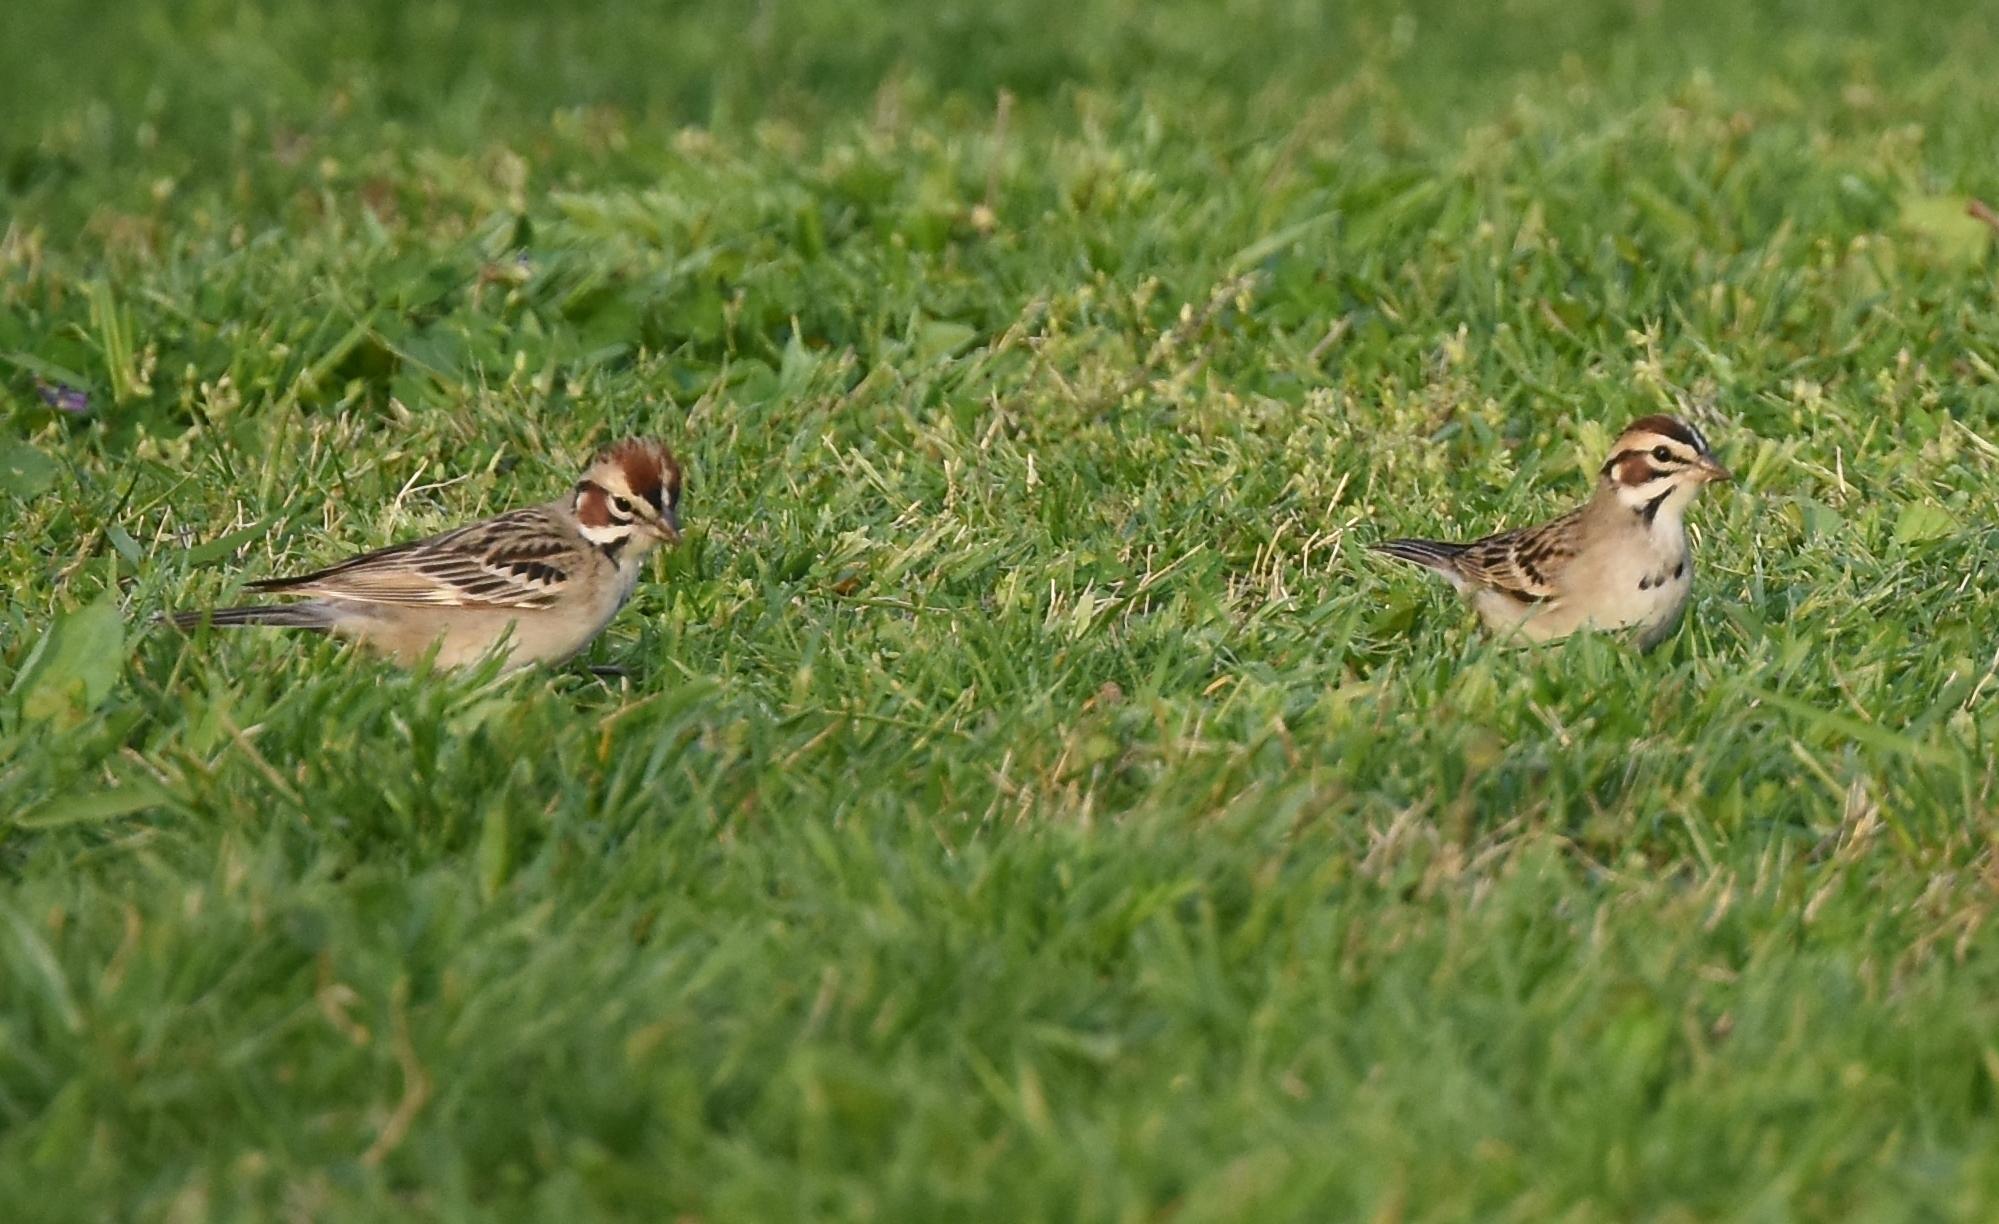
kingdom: Animalia
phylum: Chordata
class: Aves
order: Passeriformes
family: Passerellidae
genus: Chondestes
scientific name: Chondestes grammacus
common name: Lark sparrow
